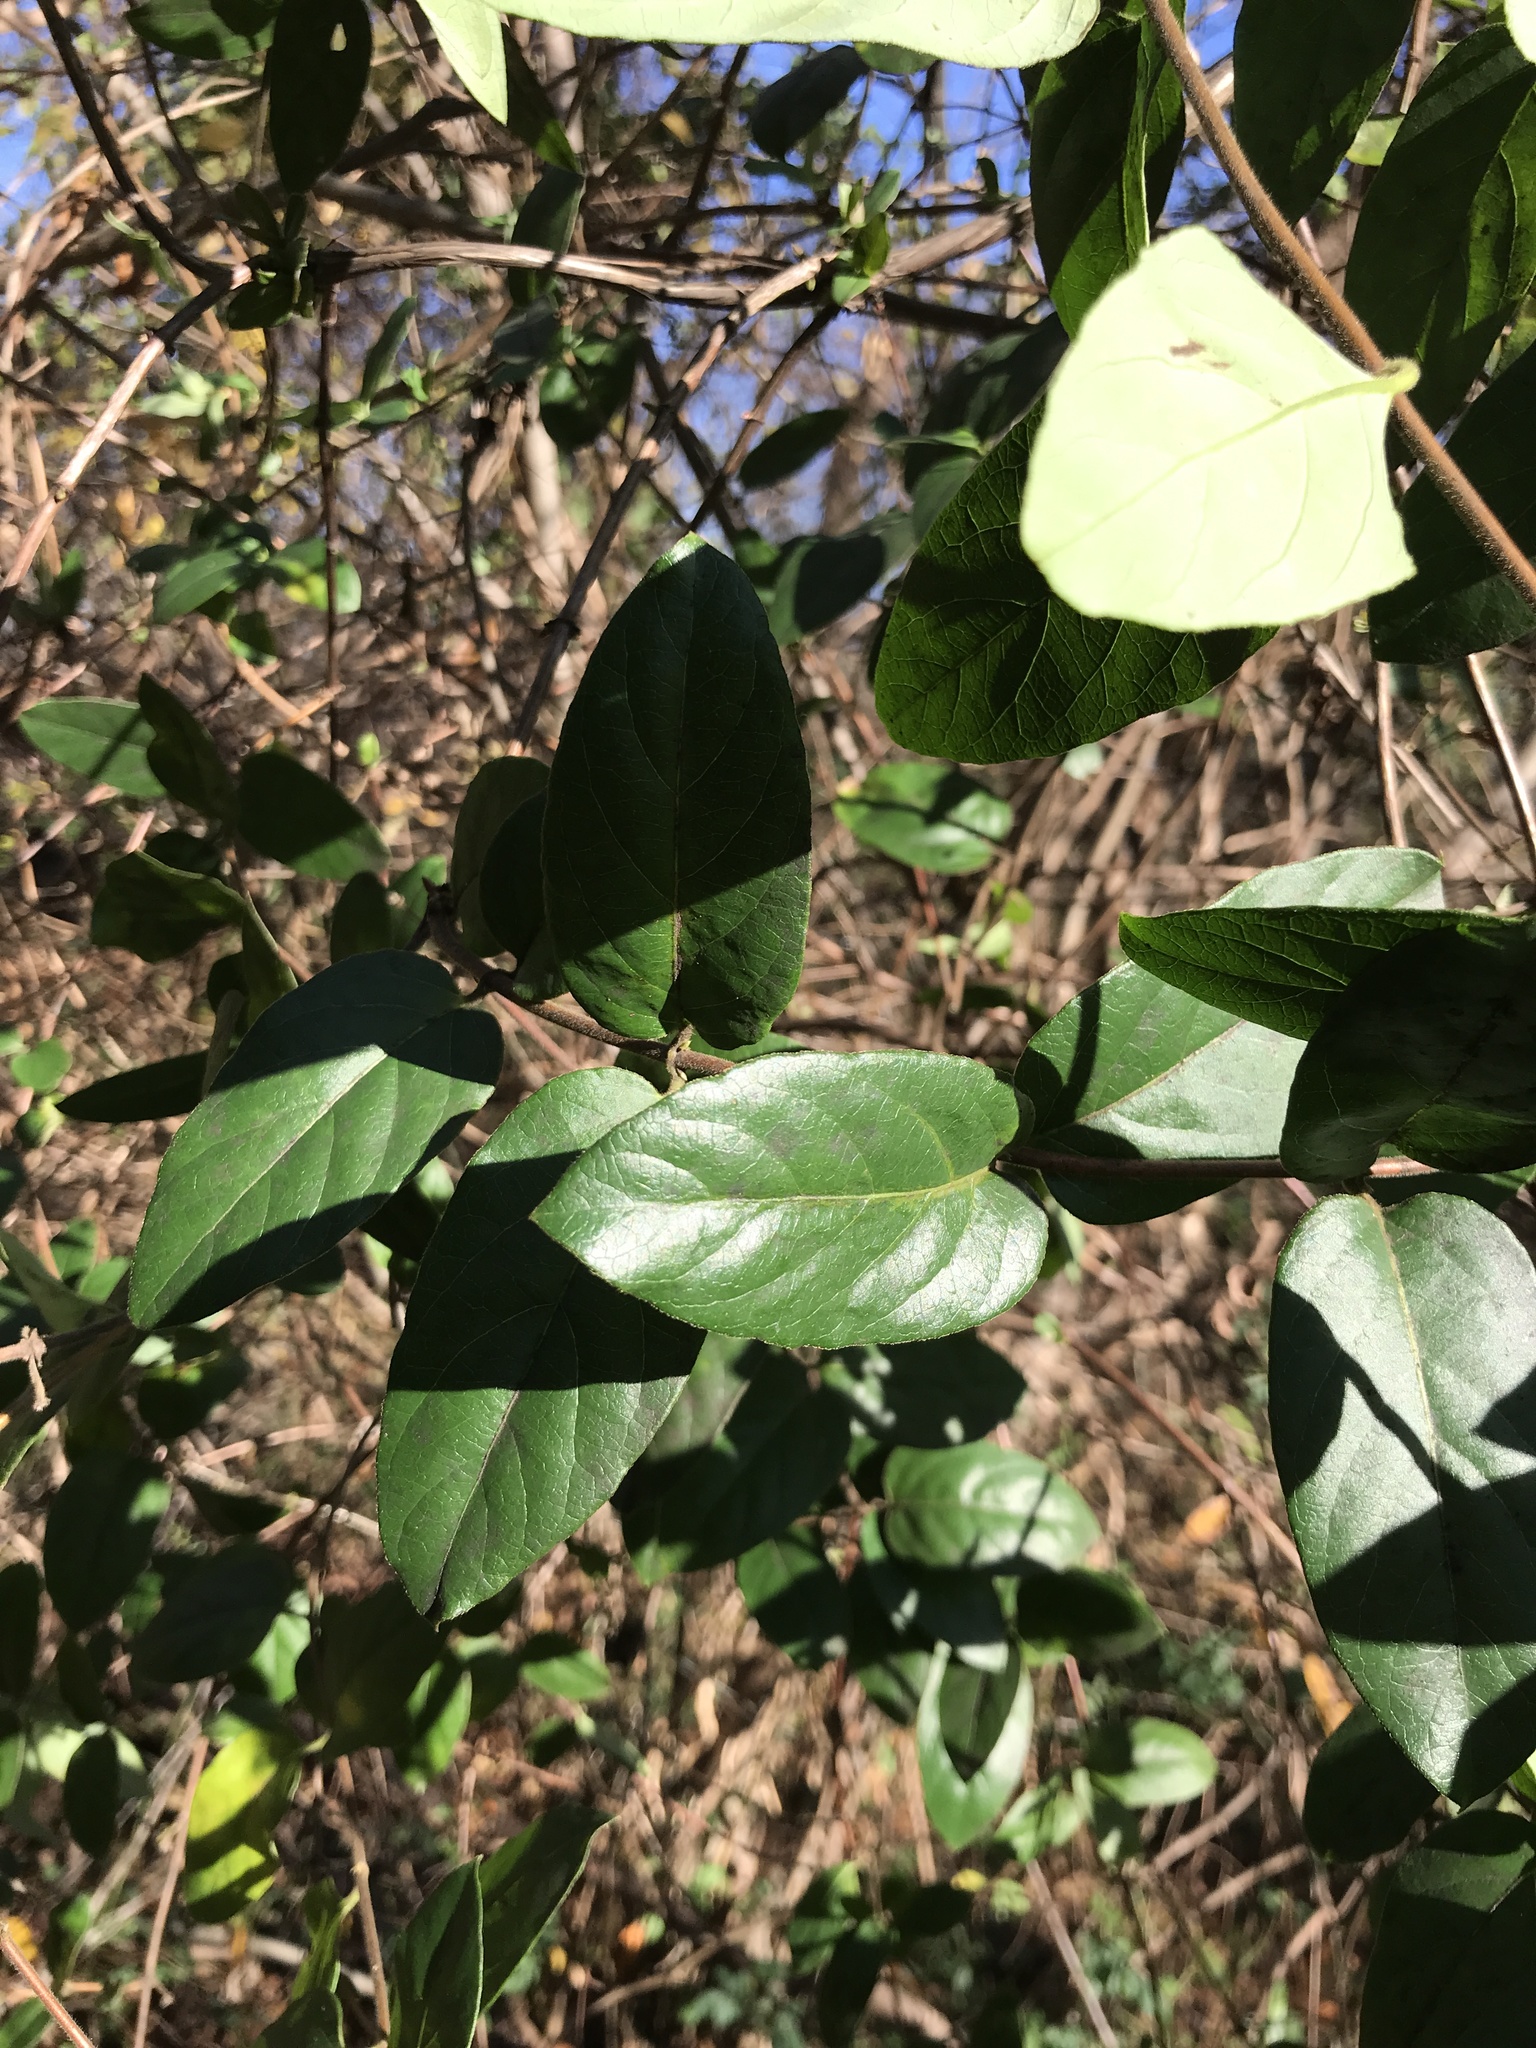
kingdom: Plantae
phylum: Tracheophyta
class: Magnoliopsida
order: Dipsacales
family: Caprifoliaceae
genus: Lonicera
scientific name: Lonicera japonica
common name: Japanese honeysuckle
